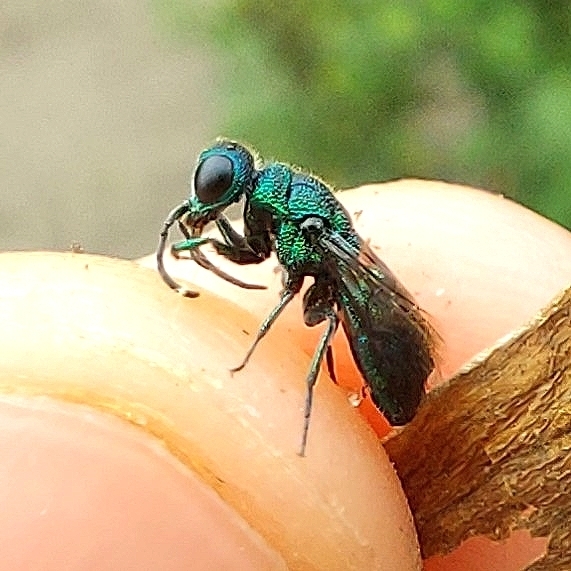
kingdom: Animalia
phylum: Arthropoda
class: Insecta
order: Hymenoptera
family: Pompilidae
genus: Pepsis
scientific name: Pepsis cyanea
